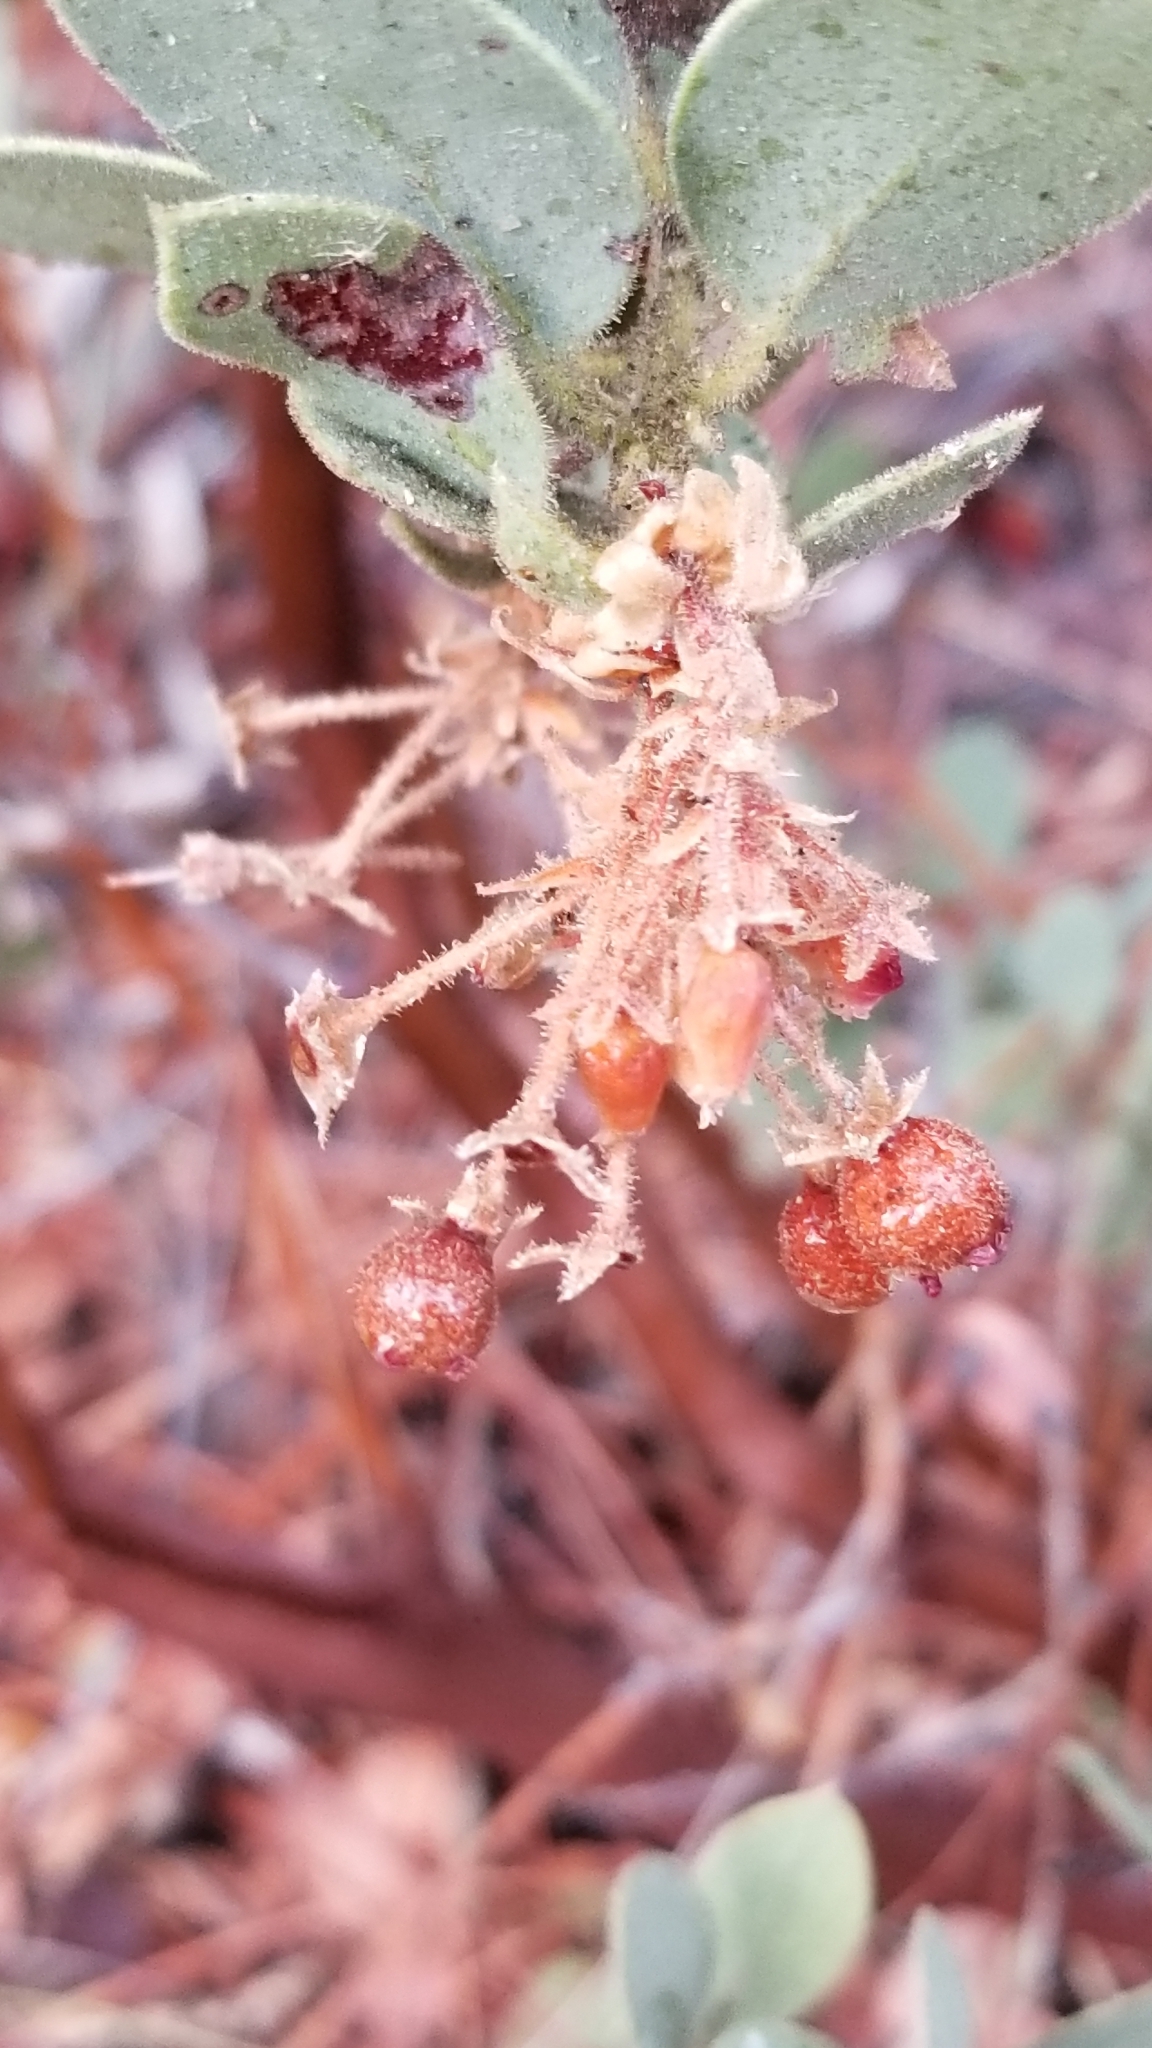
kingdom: Plantae
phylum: Tracheophyta
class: Magnoliopsida
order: Ericales
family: Ericaceae
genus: Arctostaphylos
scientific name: Arctostaphylos pringlei
